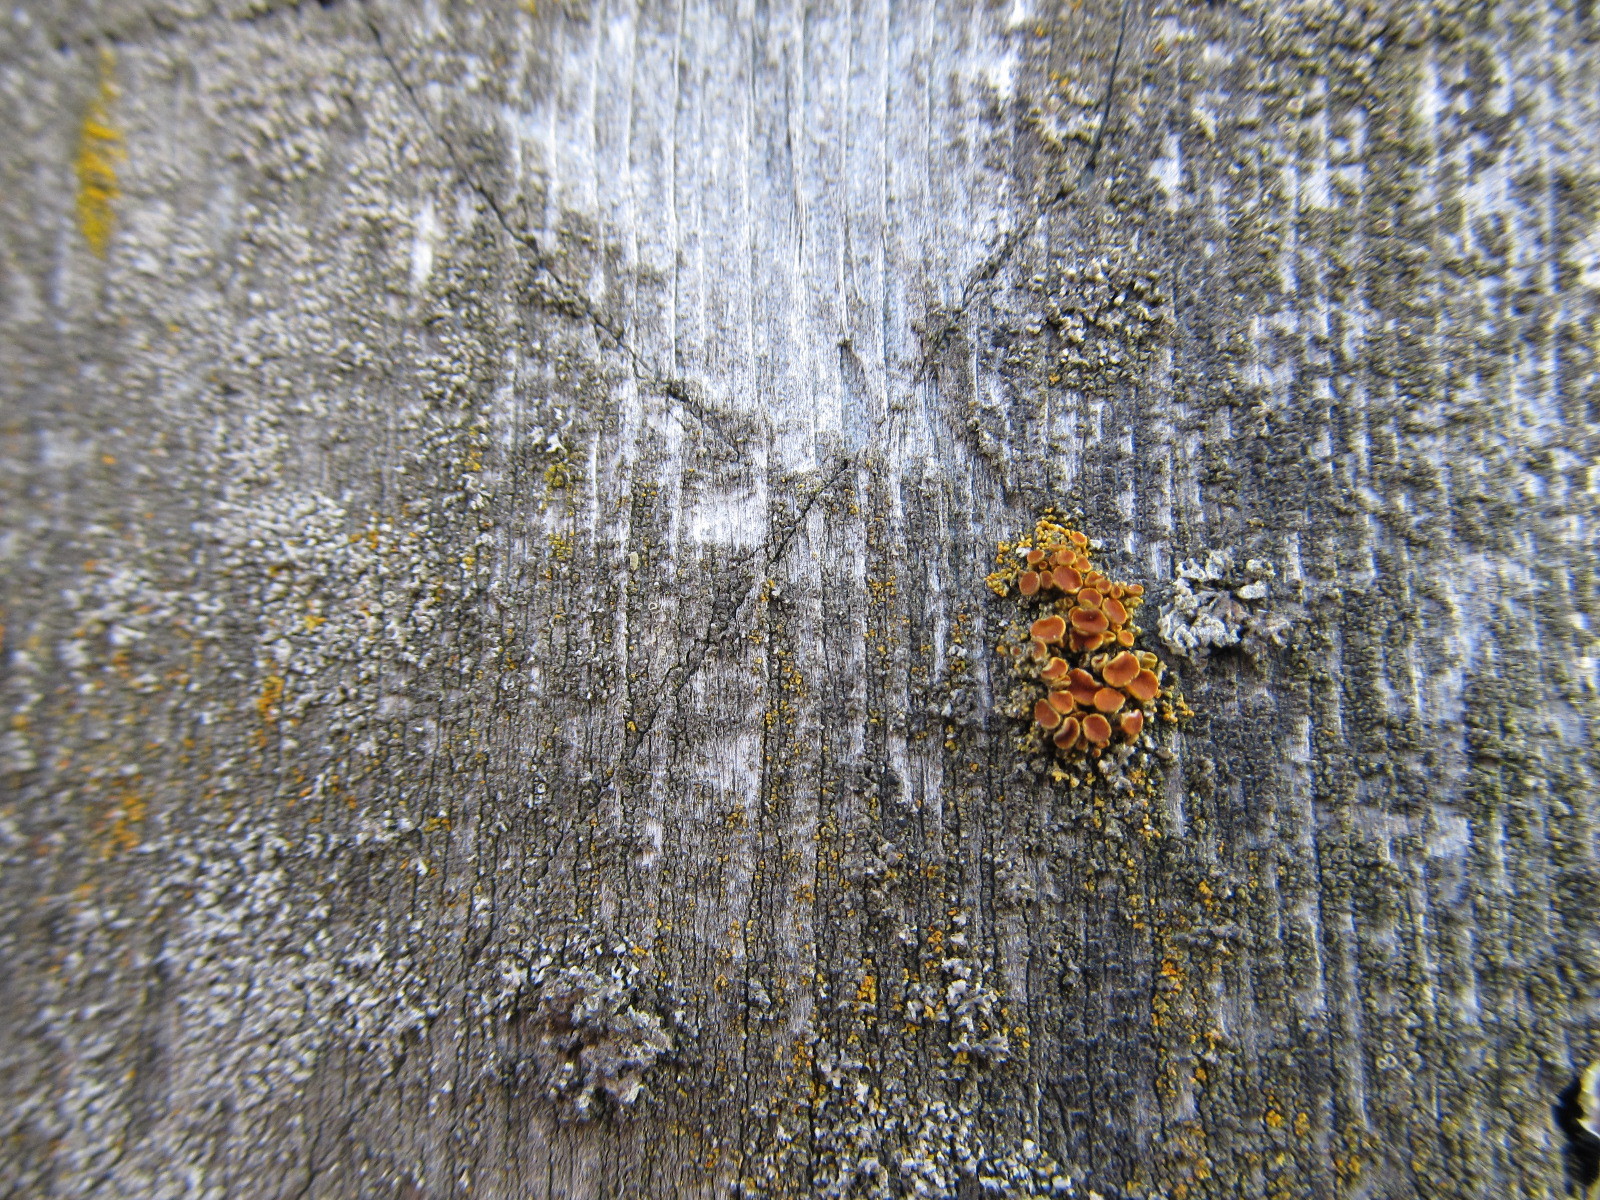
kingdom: Fungi
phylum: Ascomycota
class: Lecanoromycetes
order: Teloschistales
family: Teloschistaceae
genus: Polycauliona
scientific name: Polycauliona polycarpa
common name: Pin-cushion sunburst lichen
